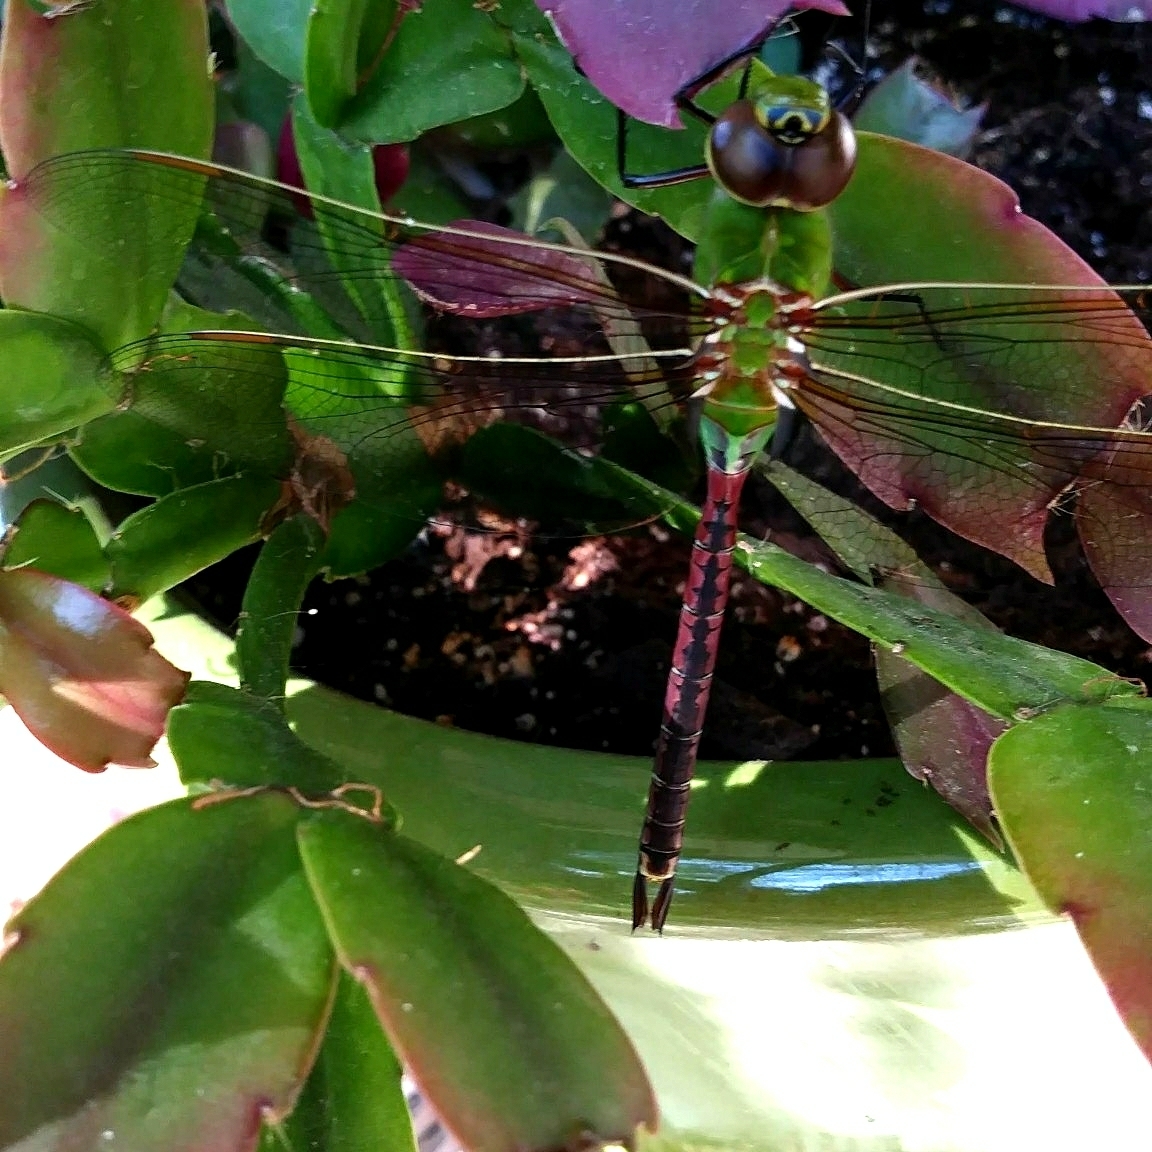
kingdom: Animalia
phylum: Arthropoda
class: Insecta
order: Odonata
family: Aeshnidae
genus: Anax
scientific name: Anax junius
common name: Common green darner
